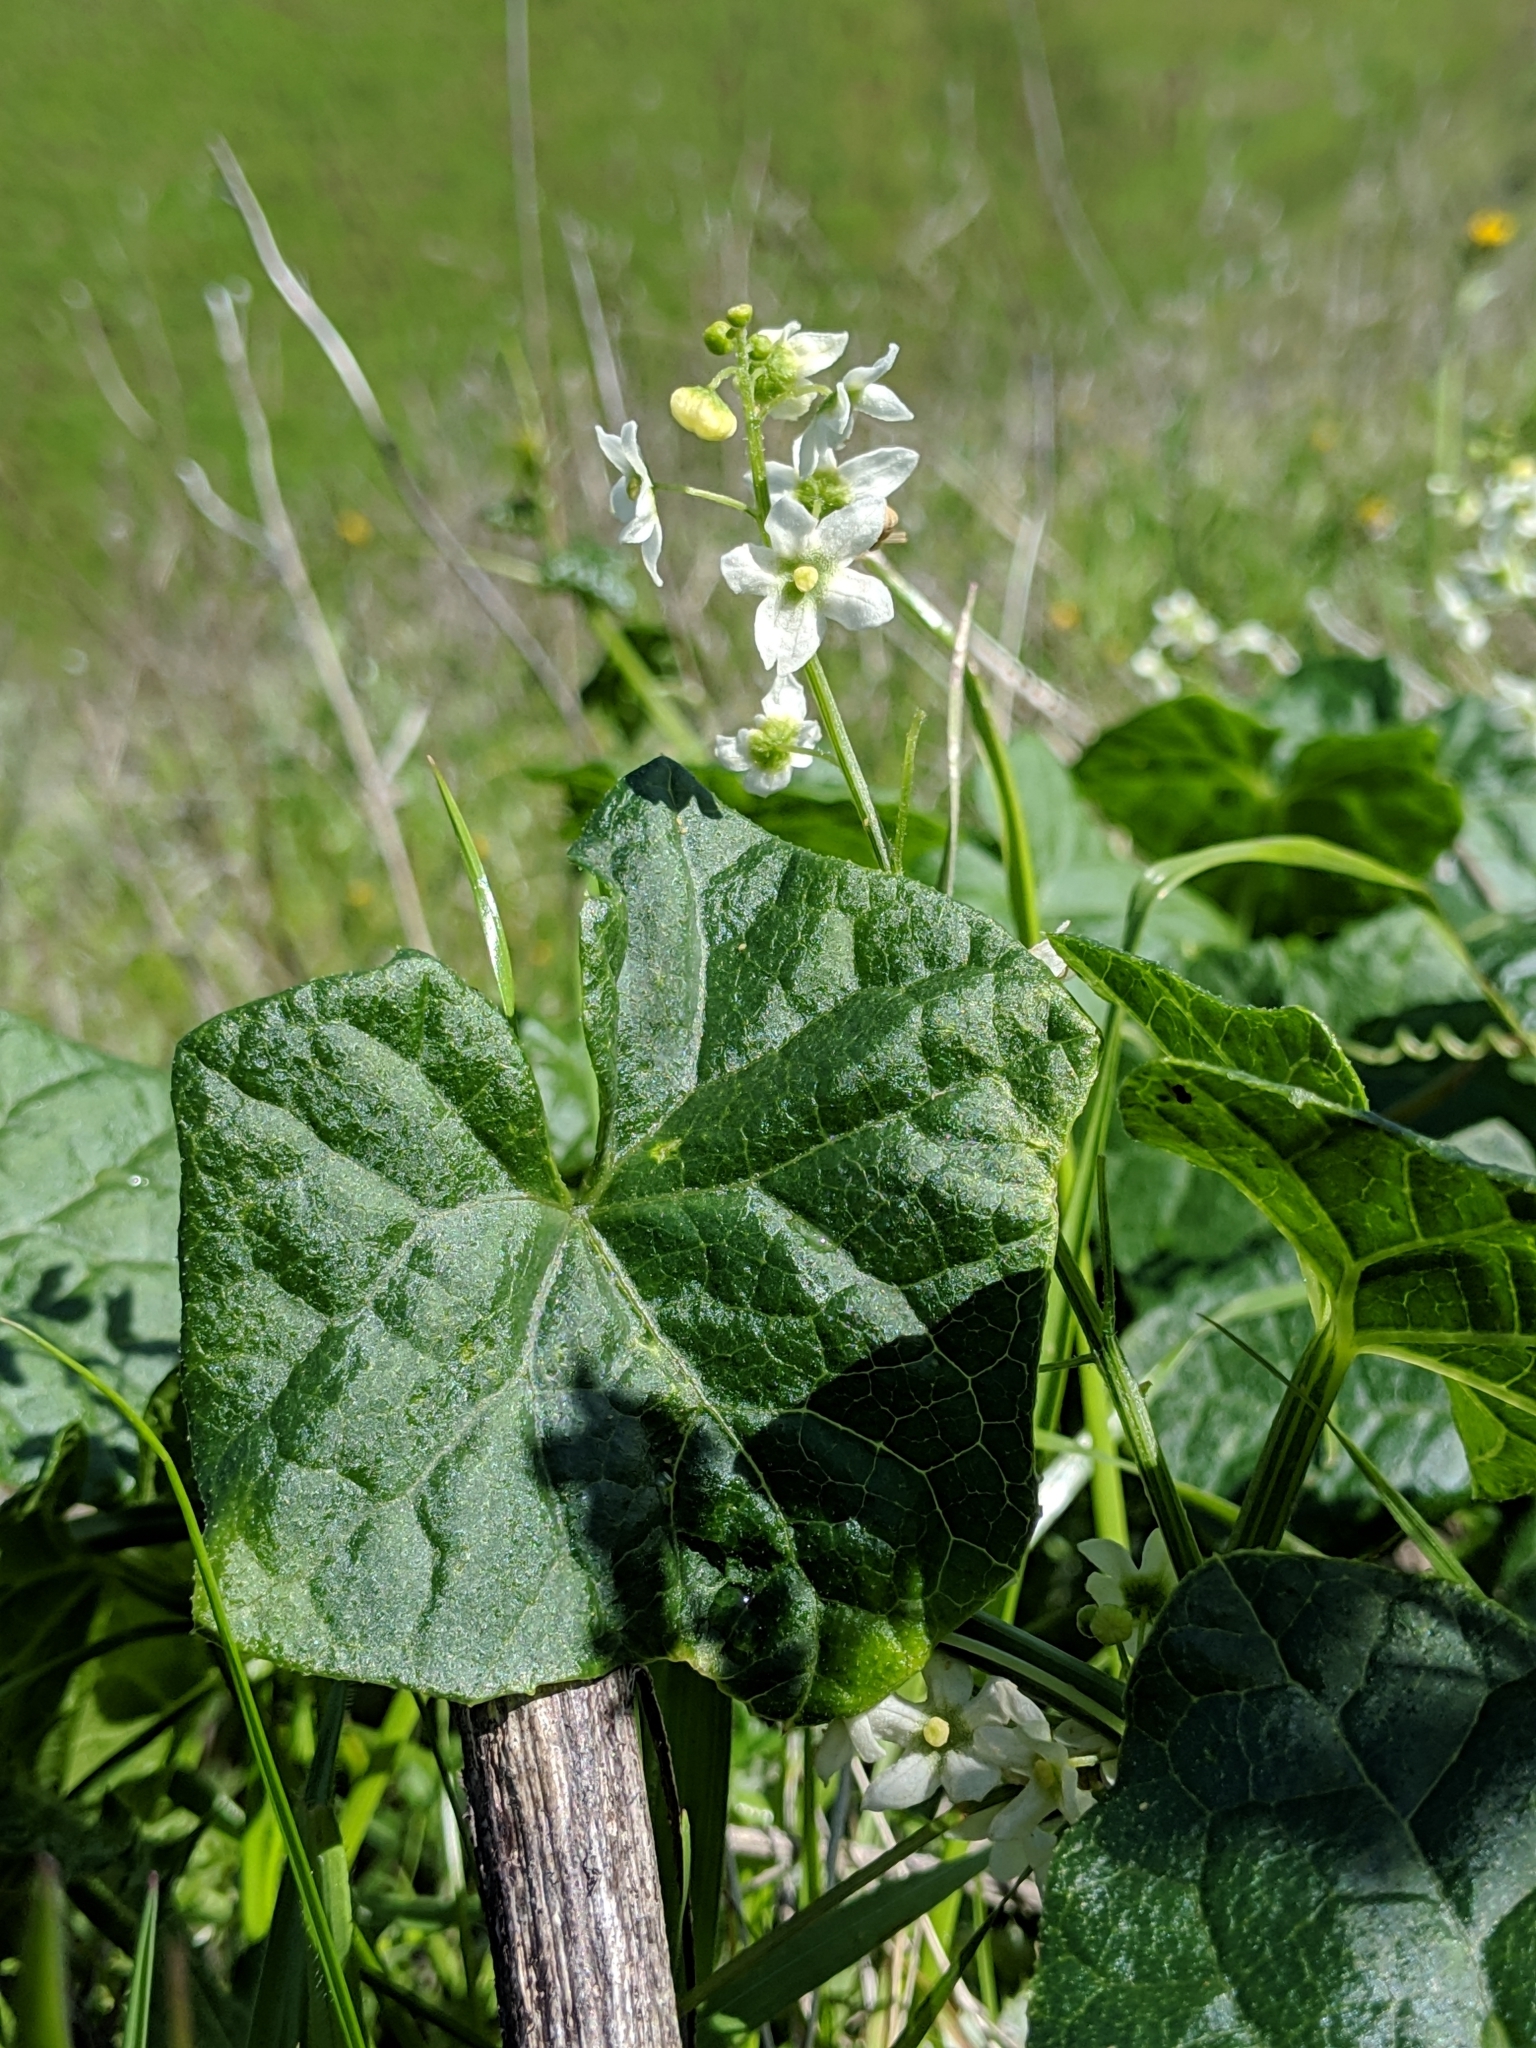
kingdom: Plantae
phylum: Tracheophyta
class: Magnoliopsida
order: Cucurbitales
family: Cucurbitaceae
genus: Marah
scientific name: Marah fabacea
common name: California manroot
